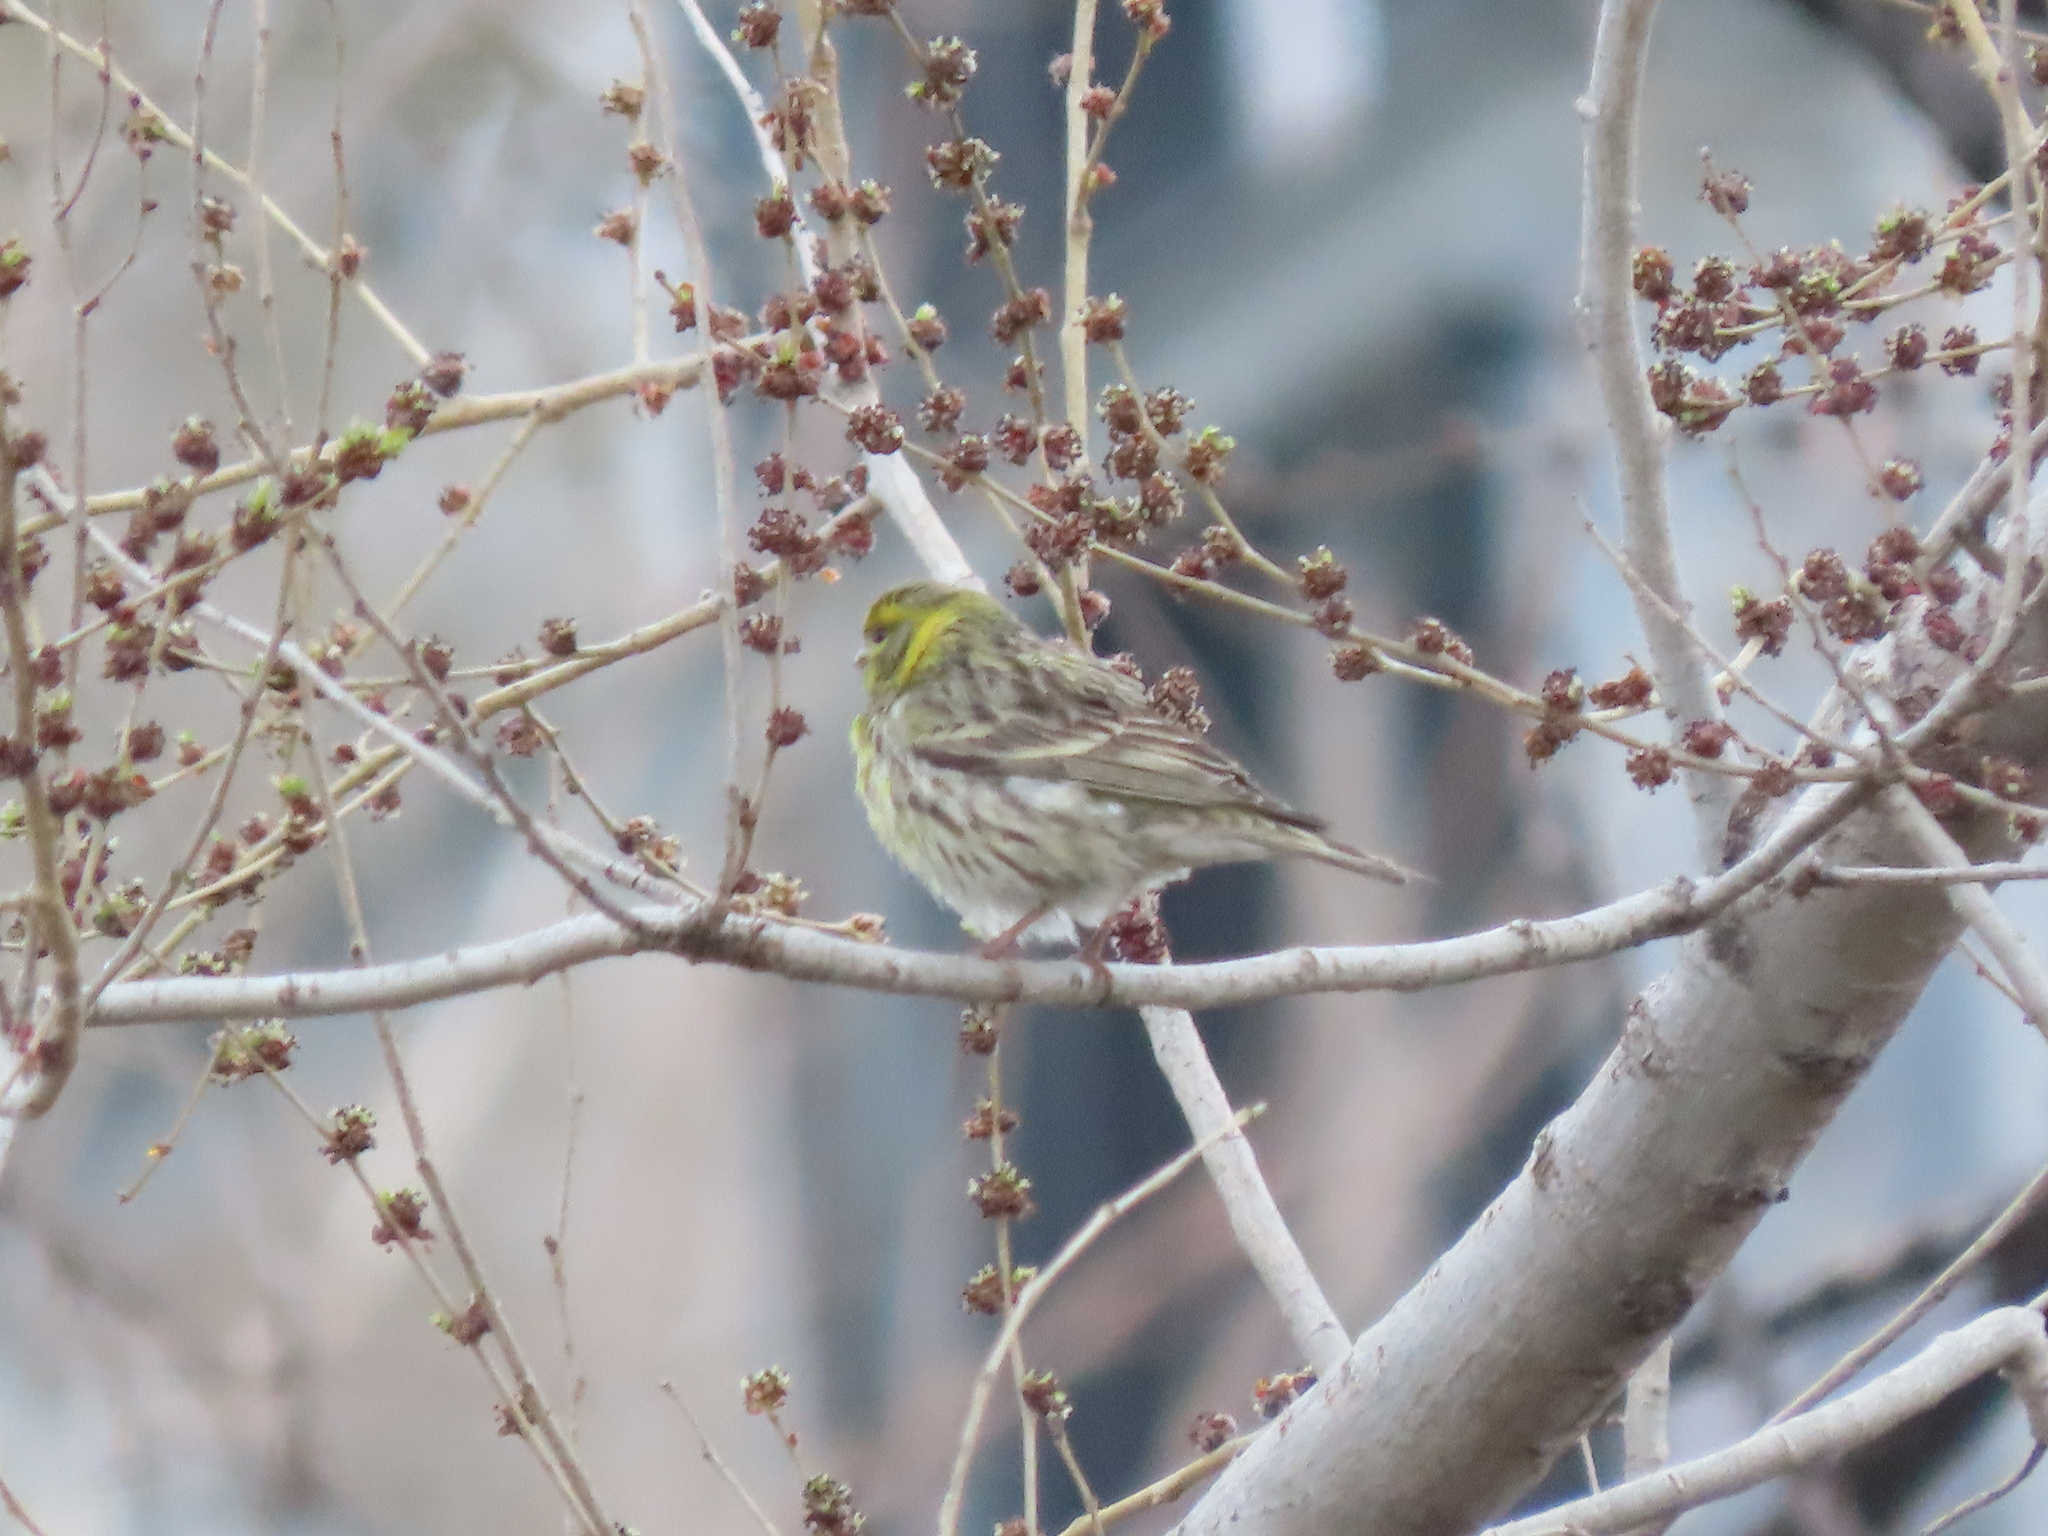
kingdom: Animalia
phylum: Chordata
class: Aves
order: Passeriformes
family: Fringillidae
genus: Serinus
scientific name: Serinus serinus
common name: European serin
